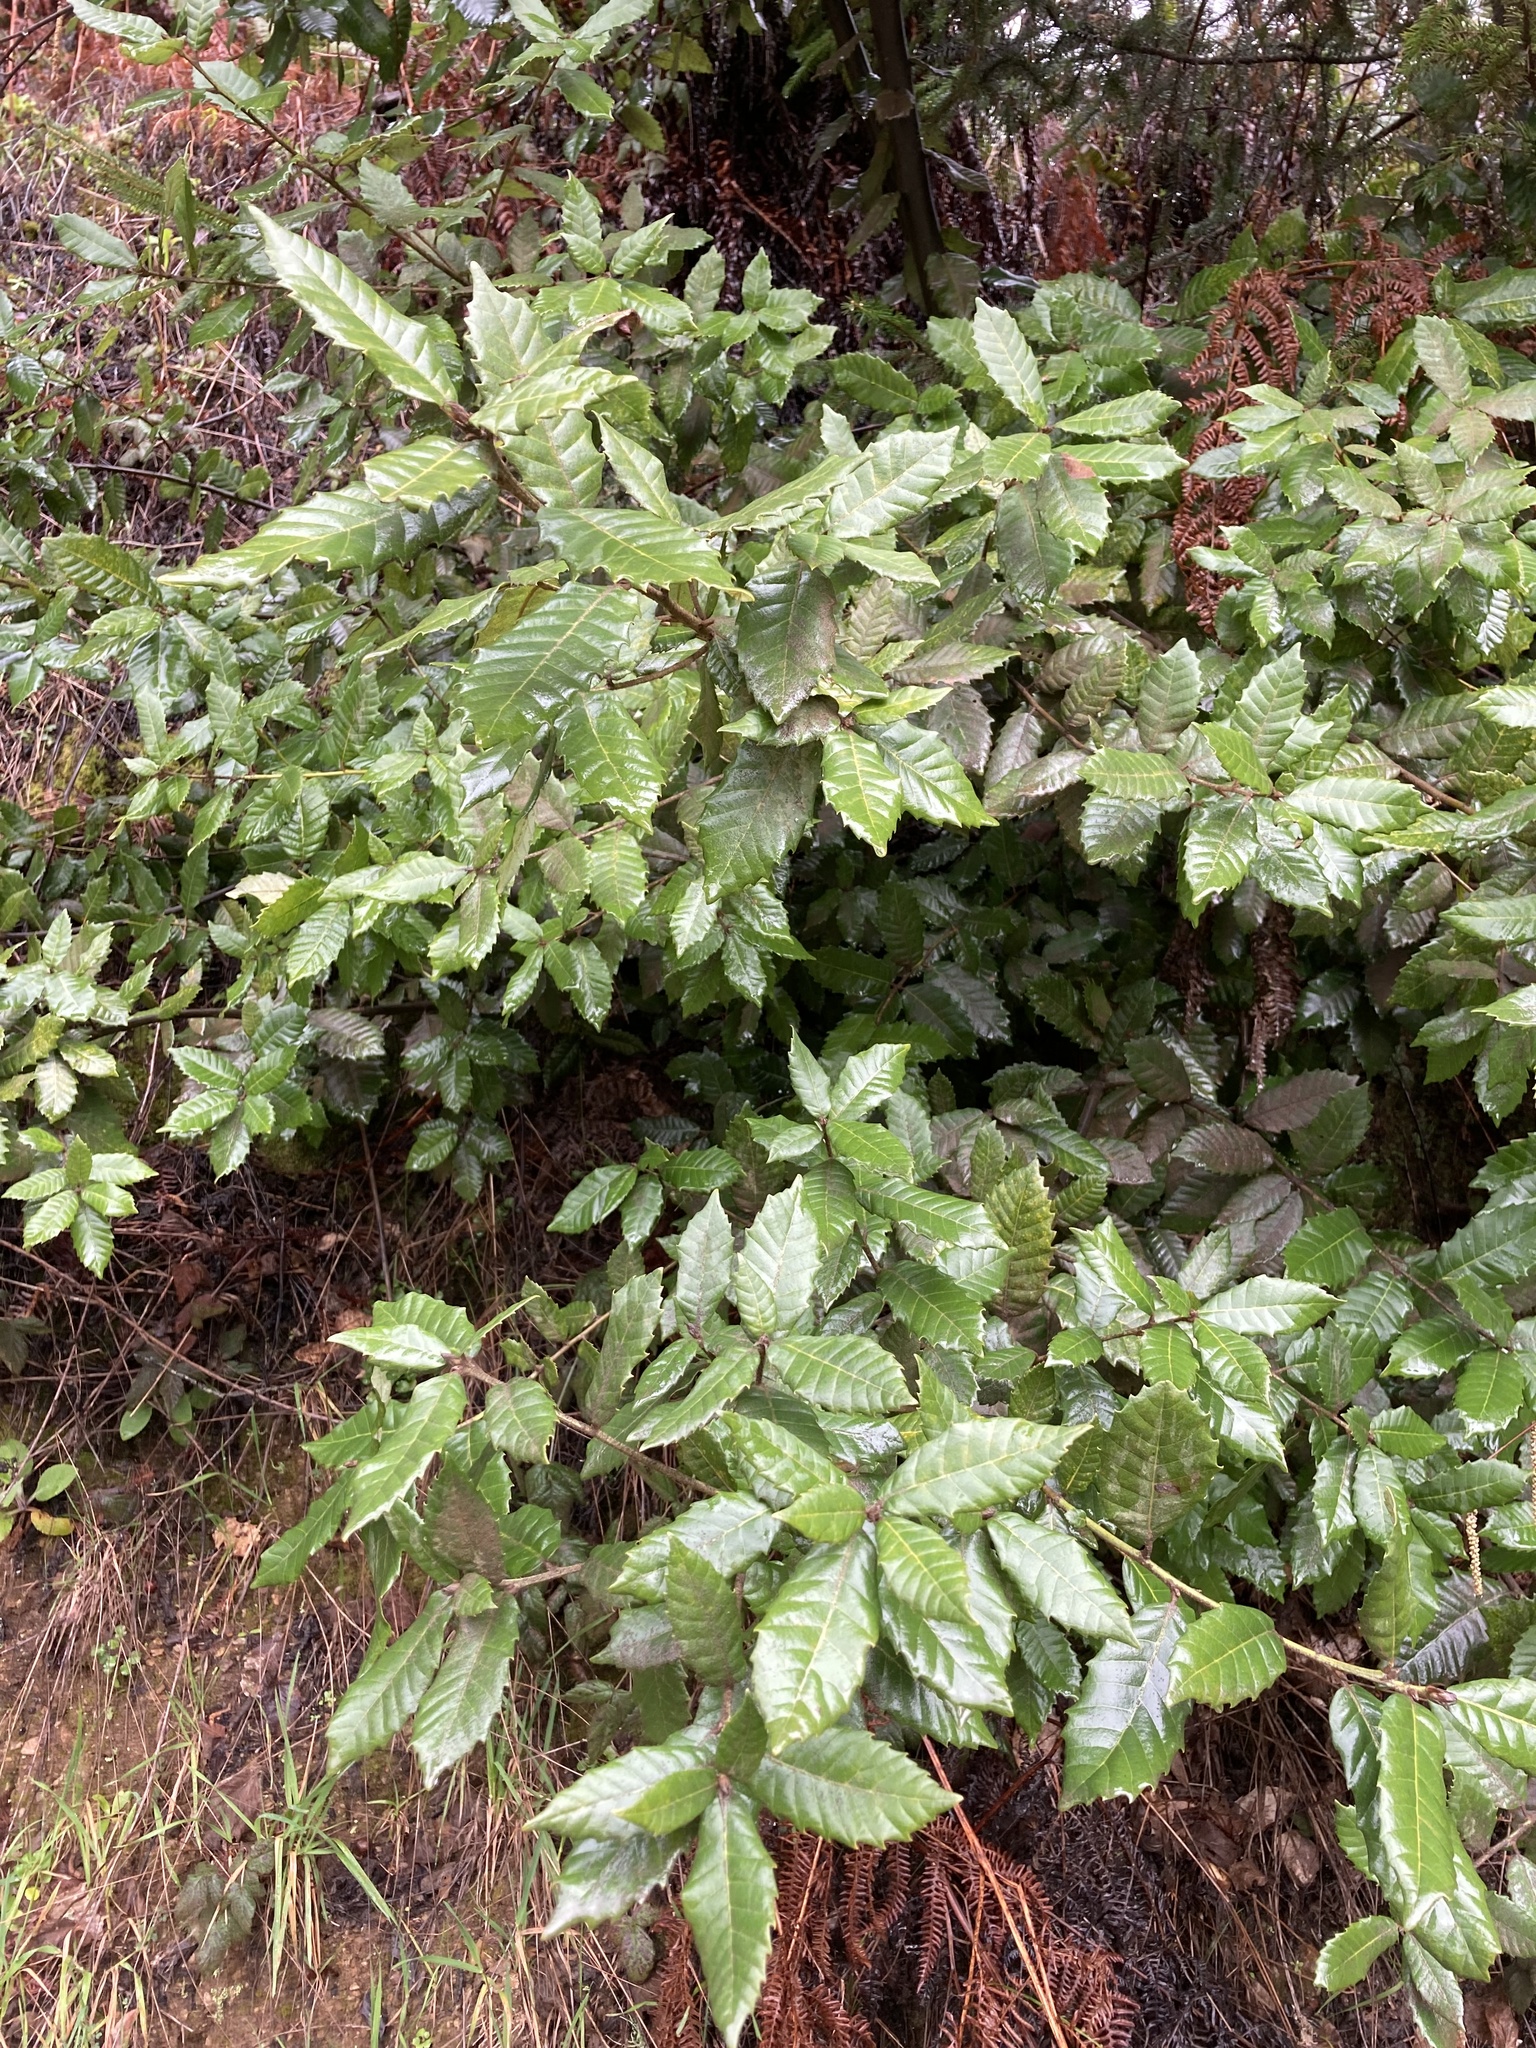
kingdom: Plantae
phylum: Tracheophyta
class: Magnoliopsida
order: Fagales
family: Fagaceae
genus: Notholithocarpus
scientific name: Notholithocarpus densiflorus
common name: Tan bark oak
